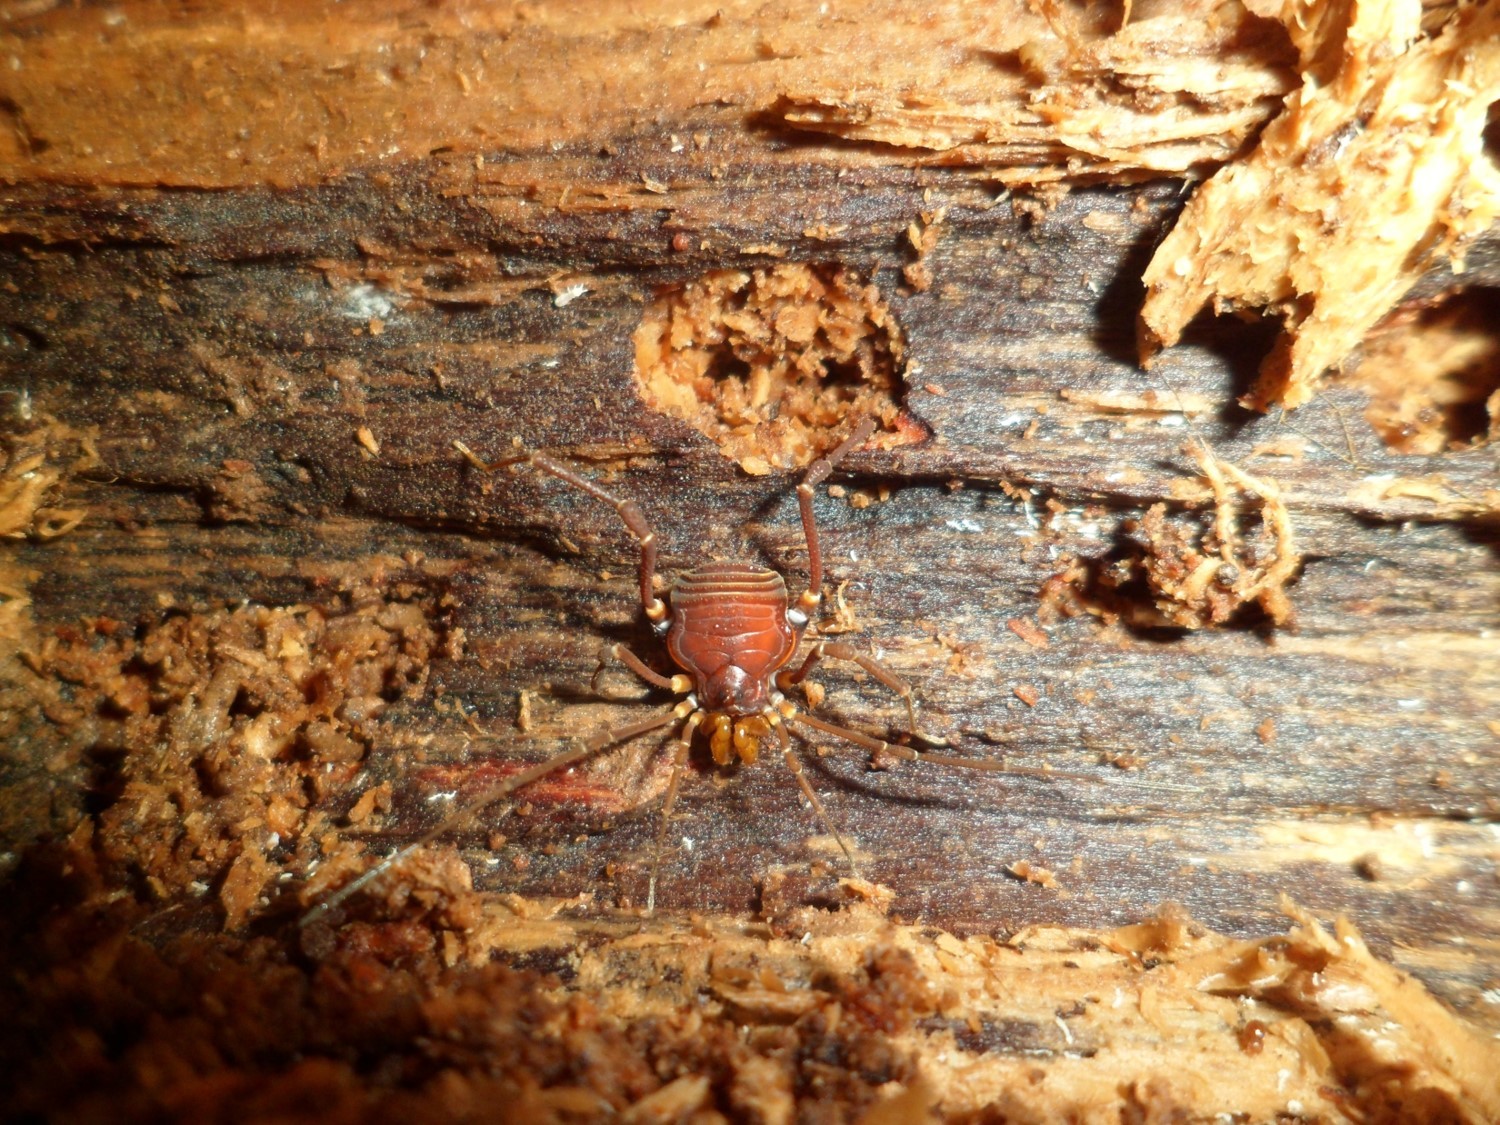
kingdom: Animalia
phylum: Arthropoda
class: Arachnida
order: Opiliones
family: Gonyleptidae
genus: Bunopachylus
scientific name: Bunopachylus orientalis
